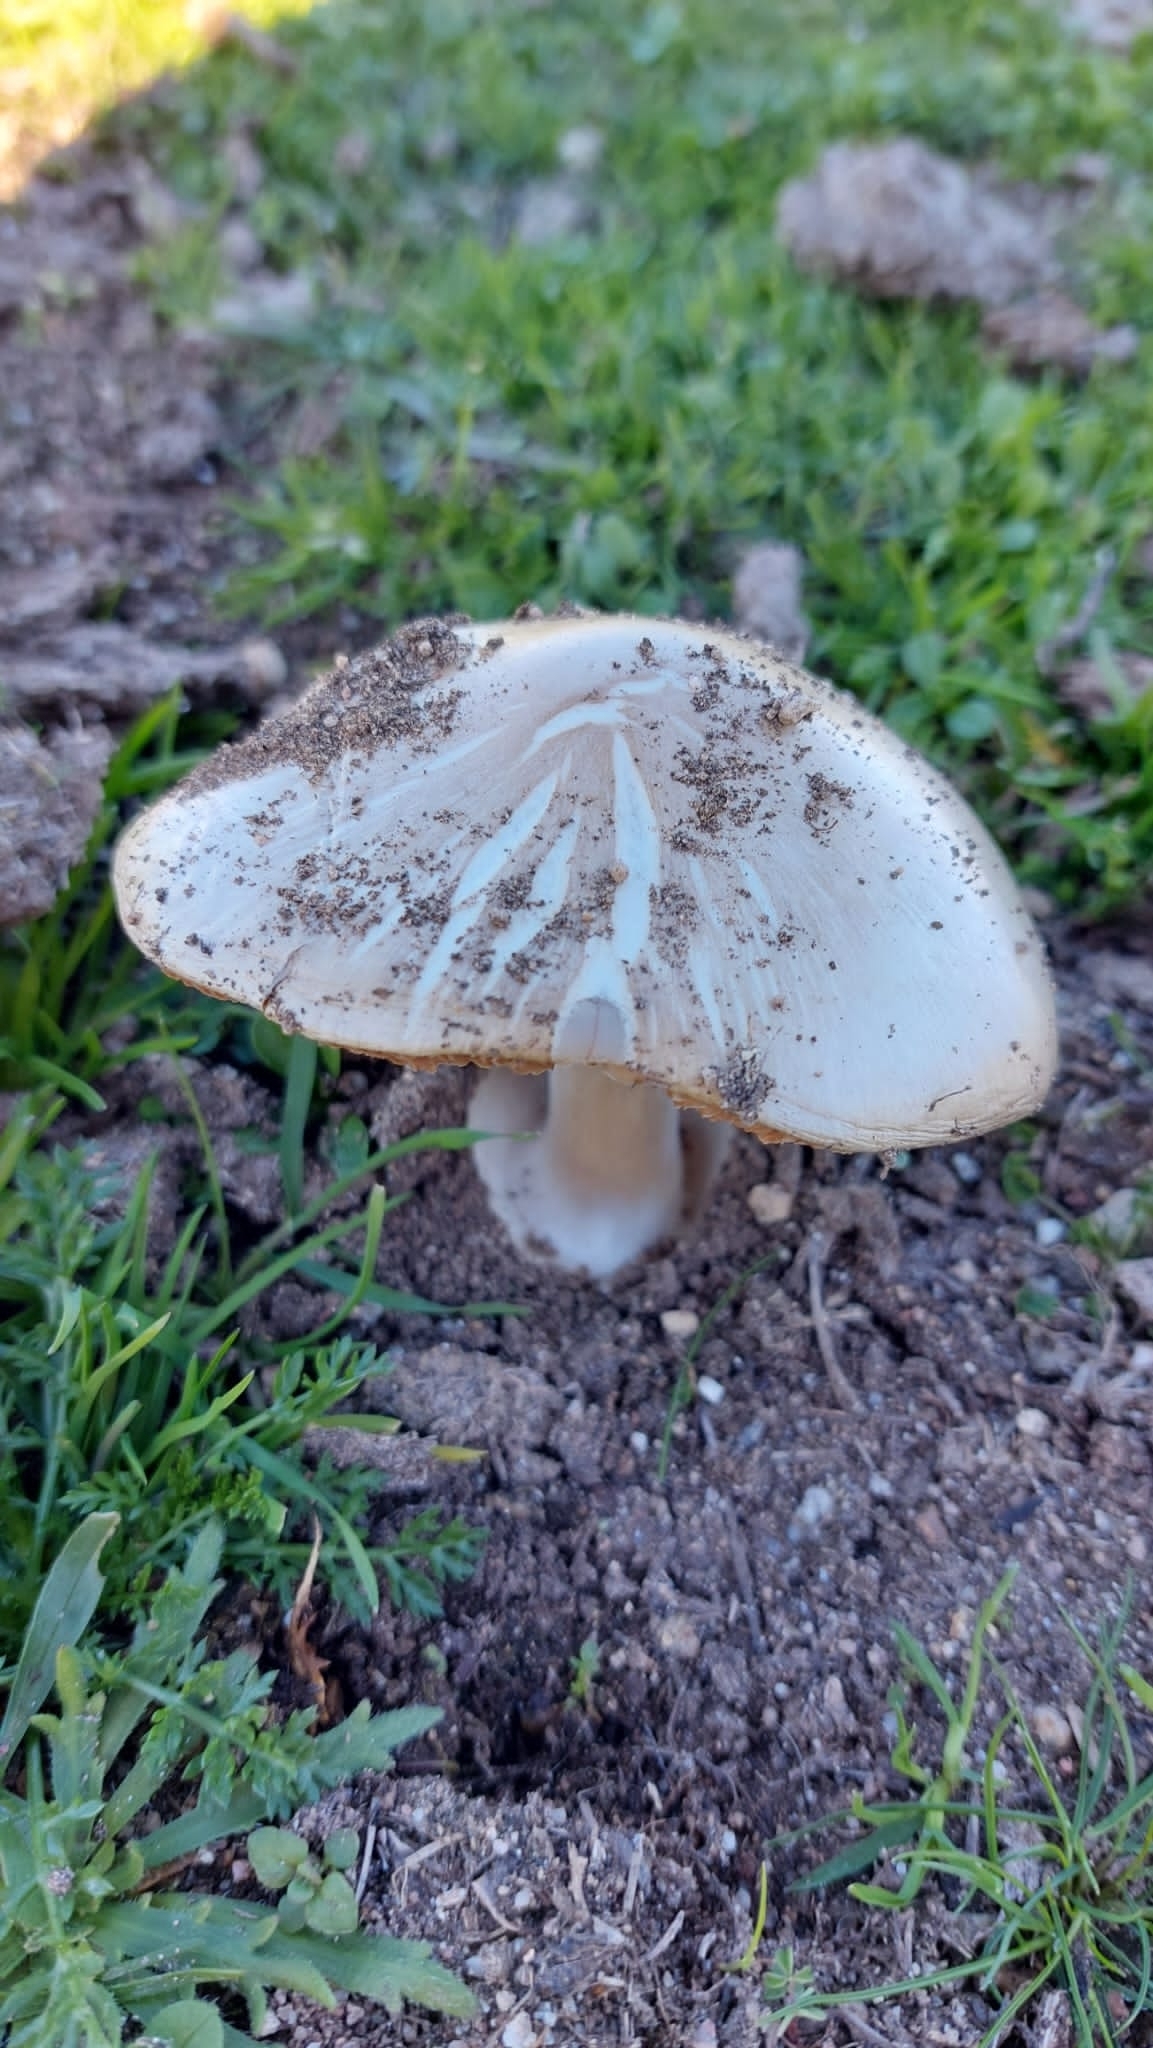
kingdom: Fungi
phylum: Basidiomycota
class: Agaricomycetes
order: Agaricales
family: Pluteaceae
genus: Volvopluteus
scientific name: Volvopluteus gloiocephalus
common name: Stubble rosegill
